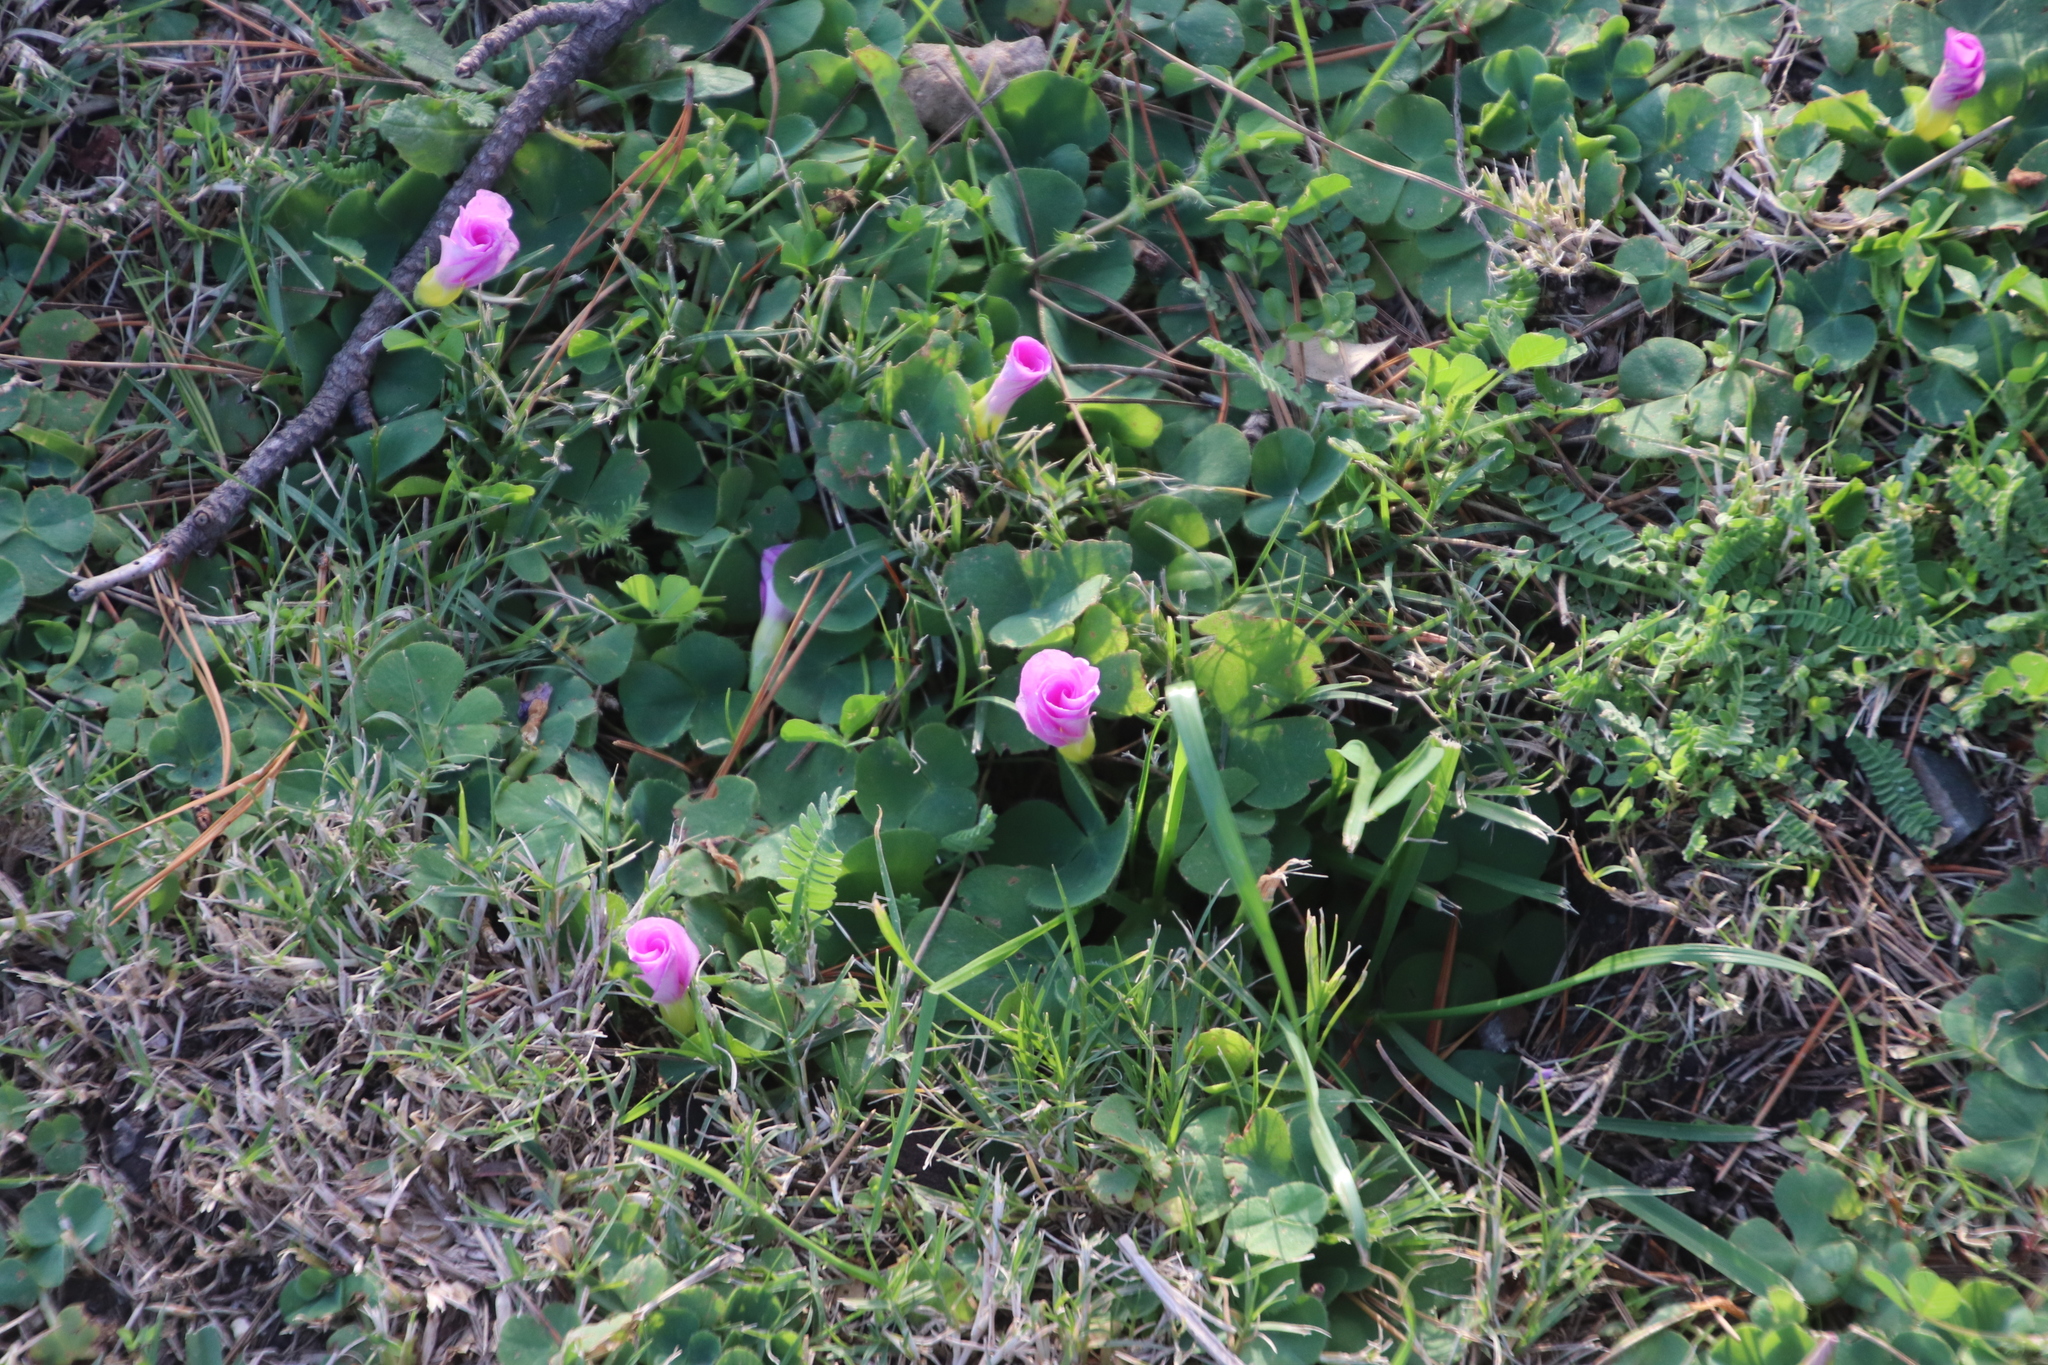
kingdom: Plantae
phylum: Tracheophyta
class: Magnoliopsida
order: Oxalidales
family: Oxalidaceae
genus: Oxalis
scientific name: Oxalis purpurea
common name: Purple woodsorrel
